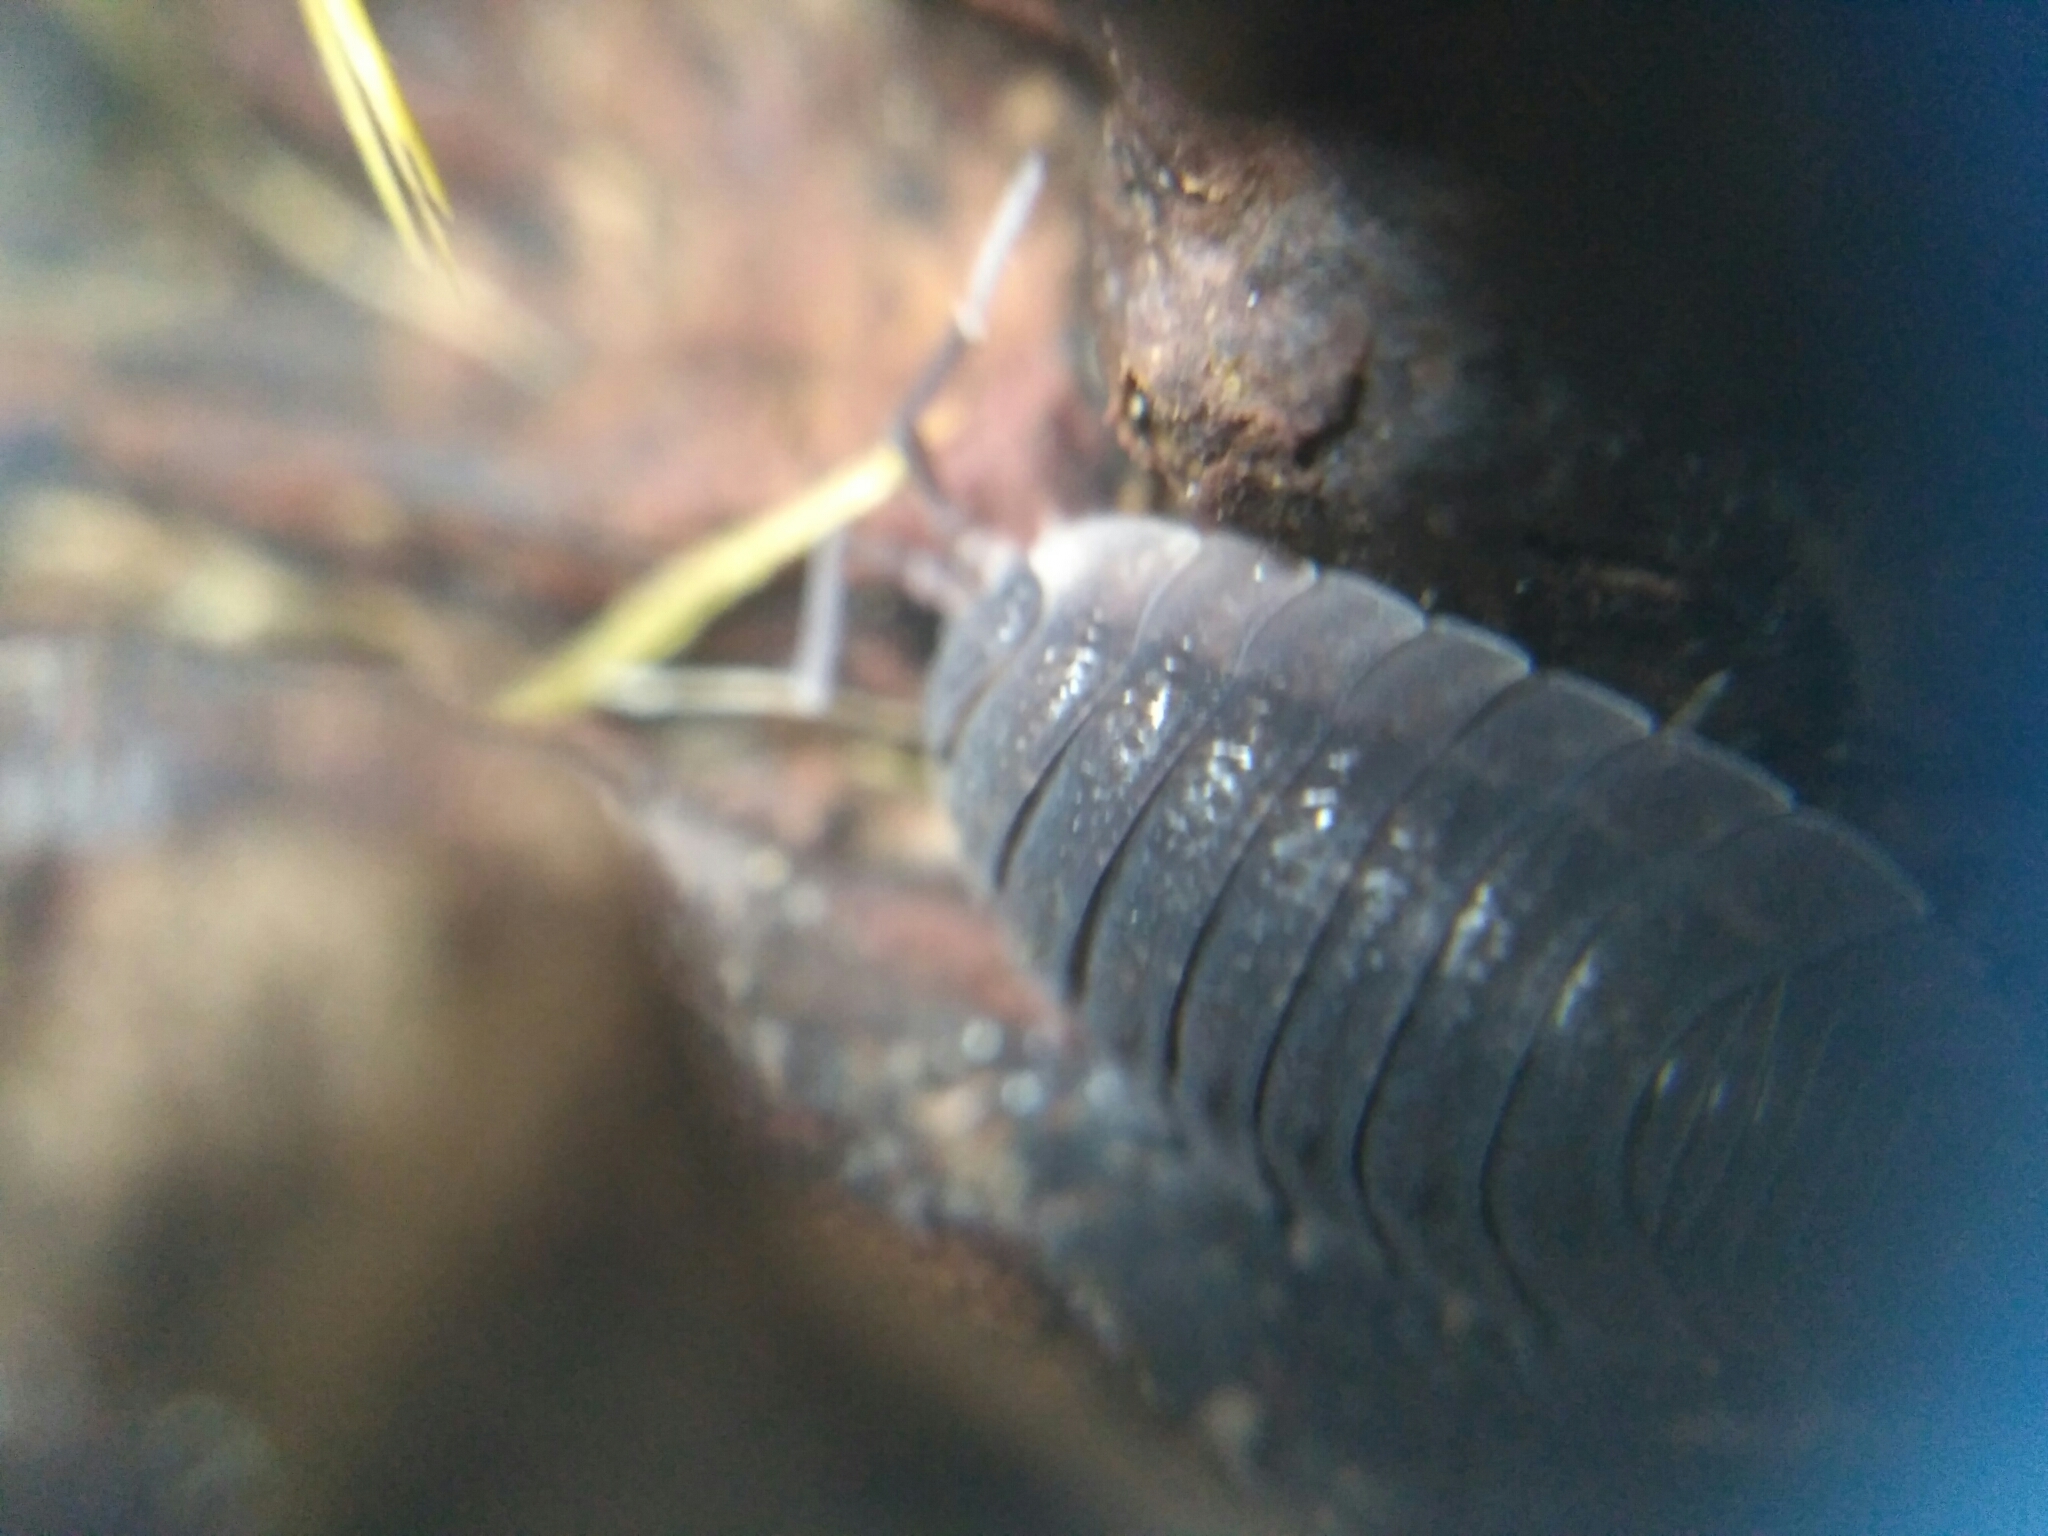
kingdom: Animalia
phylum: Arthropoda
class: Malacostraca
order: Isopoda
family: Porcellionidae
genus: Porcellio
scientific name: Porcellio scaber
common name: Common rough woodlouse
